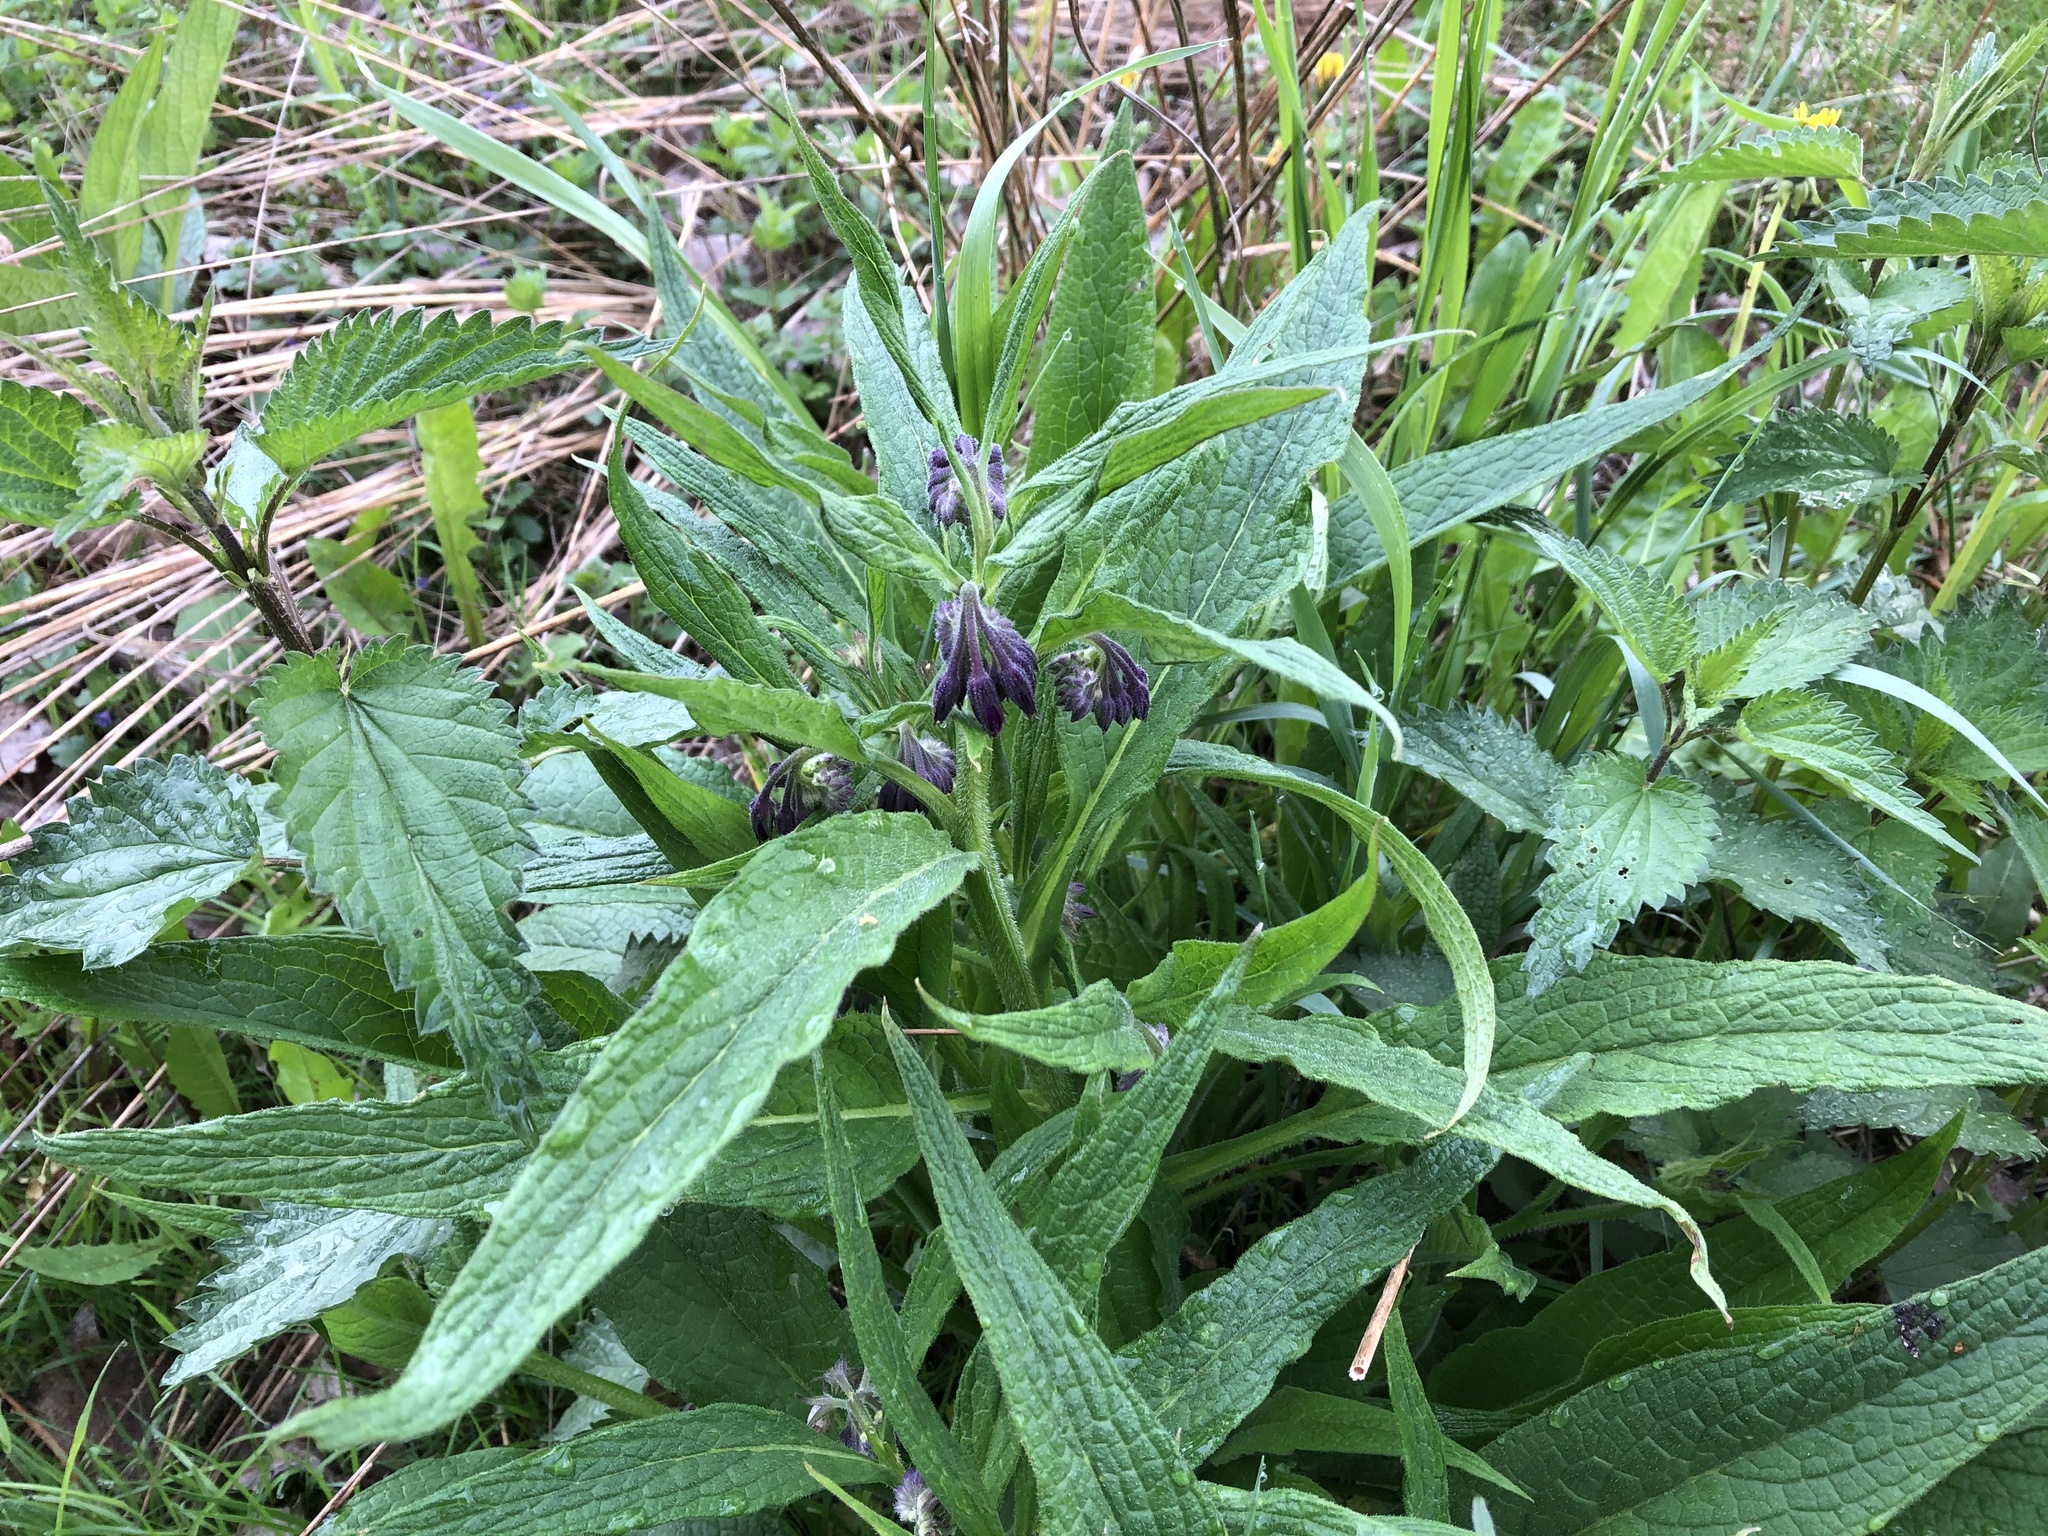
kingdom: Plantae
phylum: Tracheophyta
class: Magnoliopsida
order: Boraginales
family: Boraginaceae
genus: Symphytum
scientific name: Symphytum officinale
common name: Common comfrey
